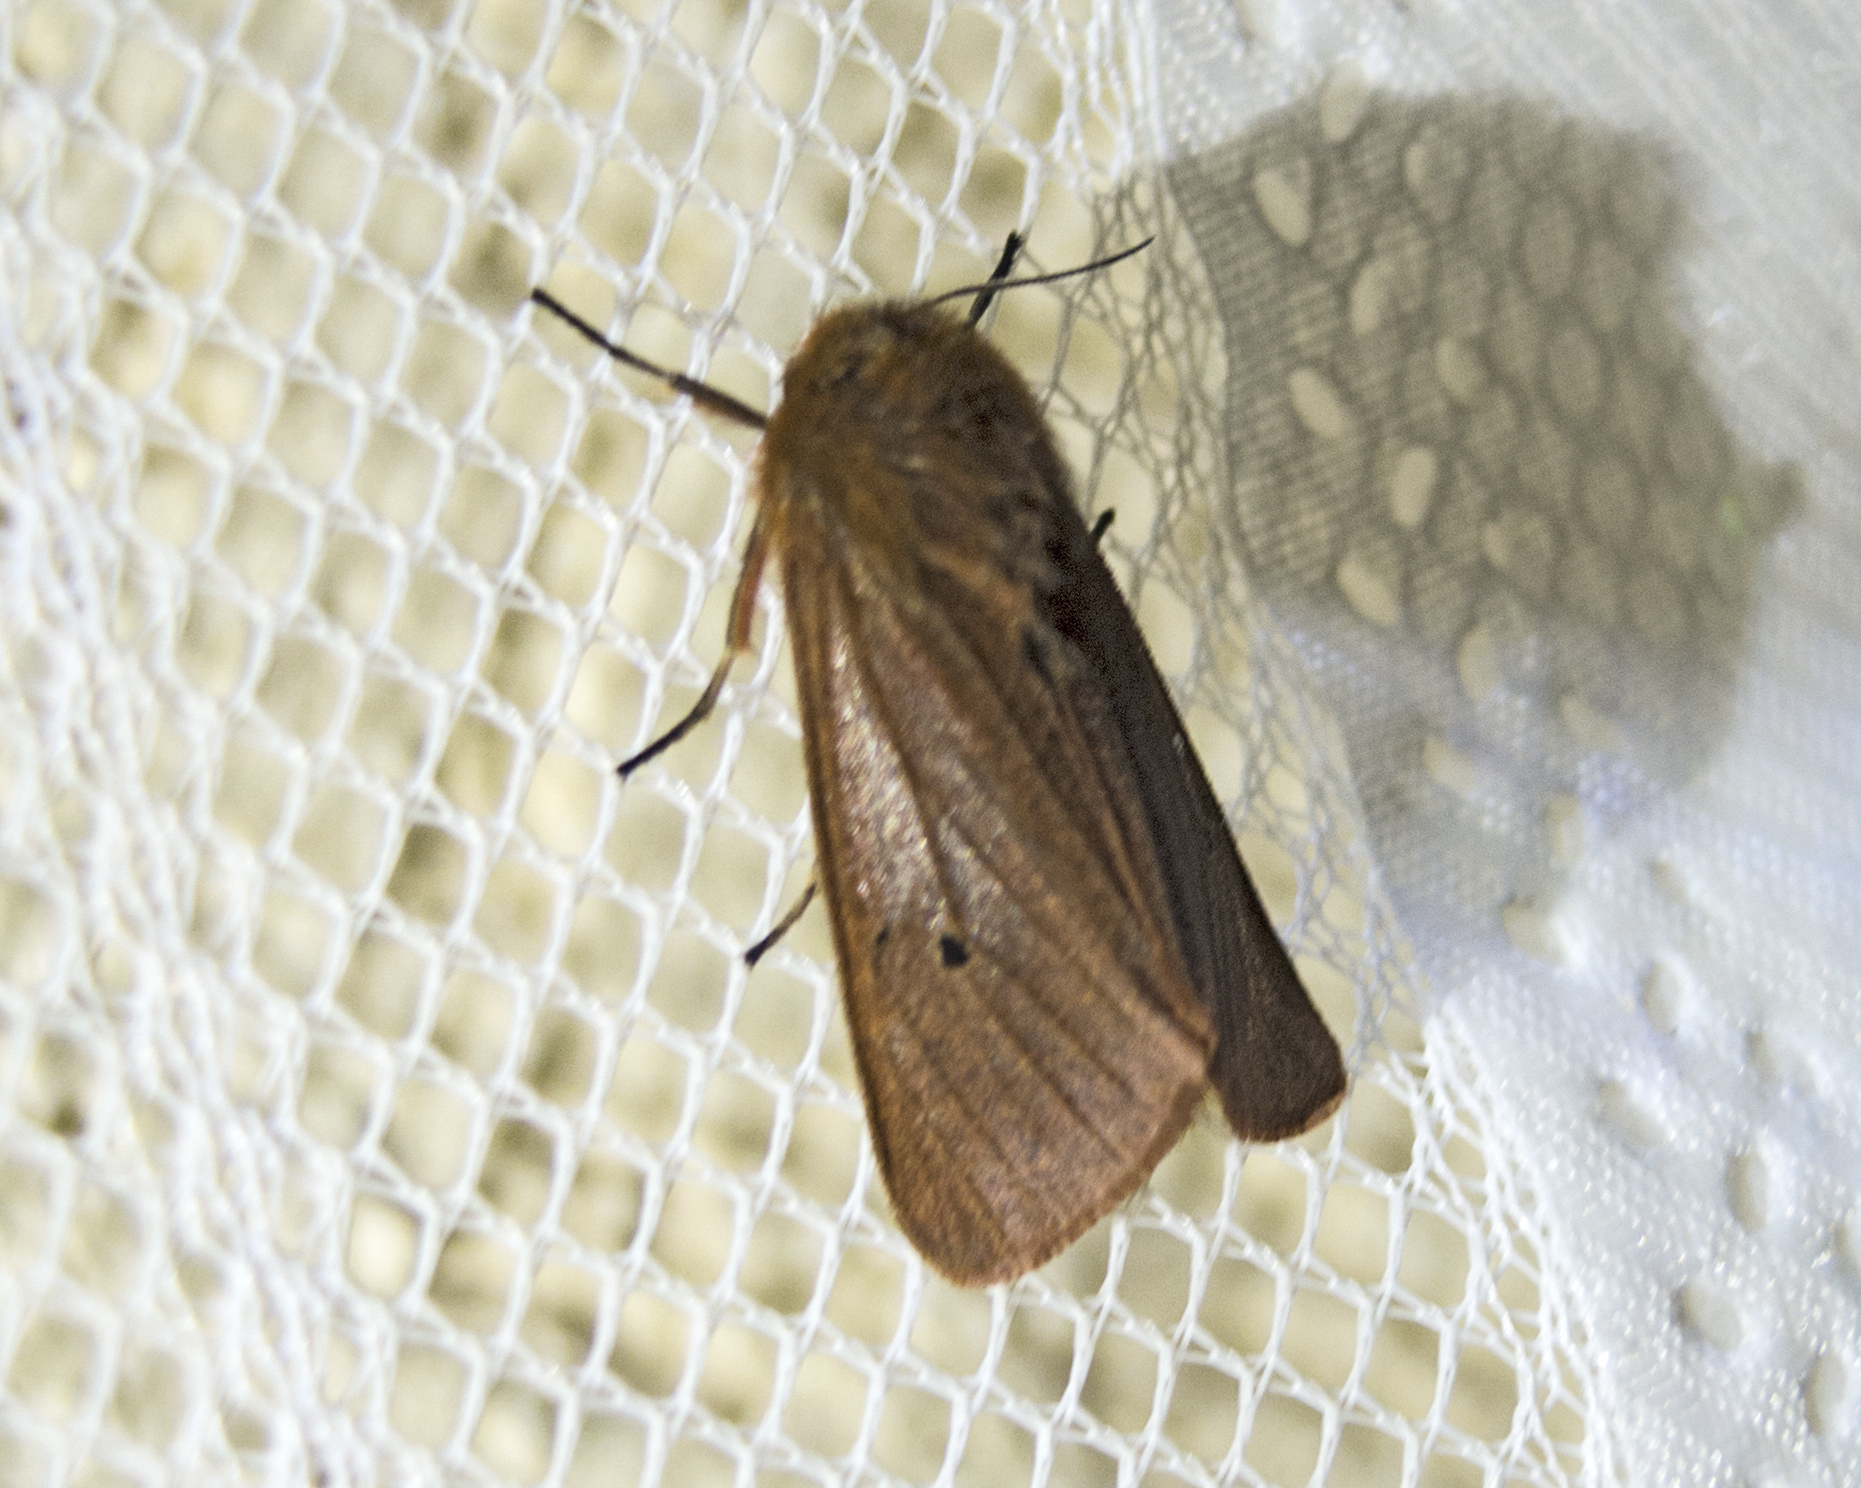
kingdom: Animalia
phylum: Arthropoda
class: Insecta
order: Lepidoptera
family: Erebidae
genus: Phragmatobia
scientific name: Phragmatobia fuliginosa
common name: Ruby tiger
